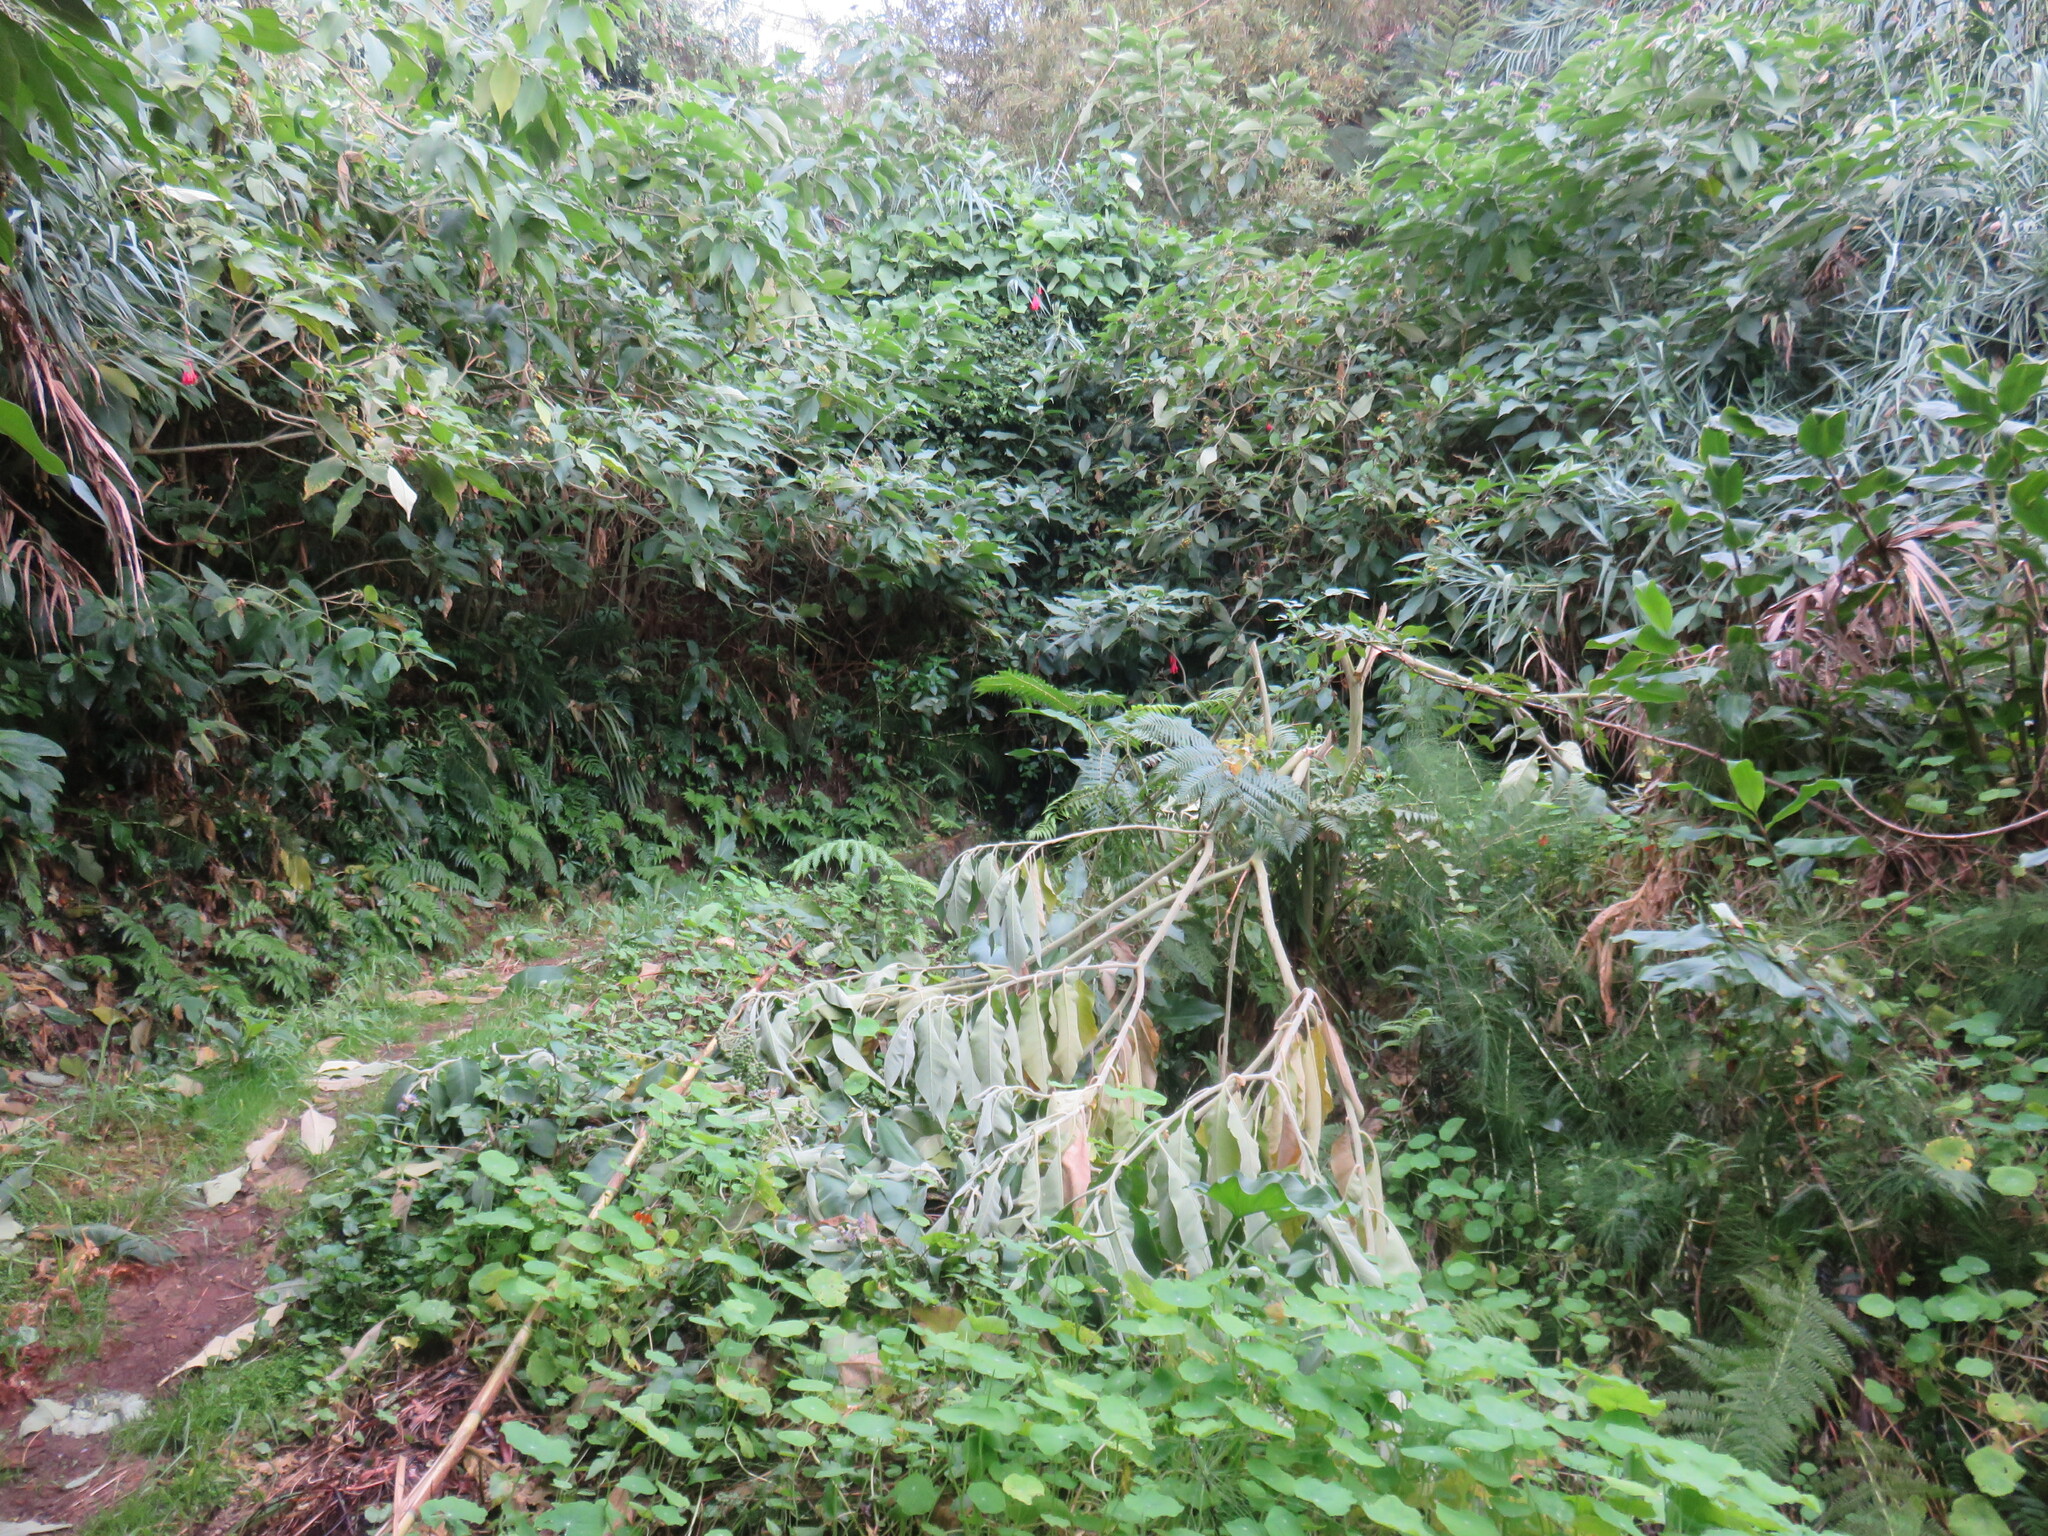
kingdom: Plantae
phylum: Tracheophyta
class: Magnoliopsida
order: Solanales
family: Solanaceae
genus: Solanum
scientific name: Solanum mauritianum
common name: Earleaf nightshade
